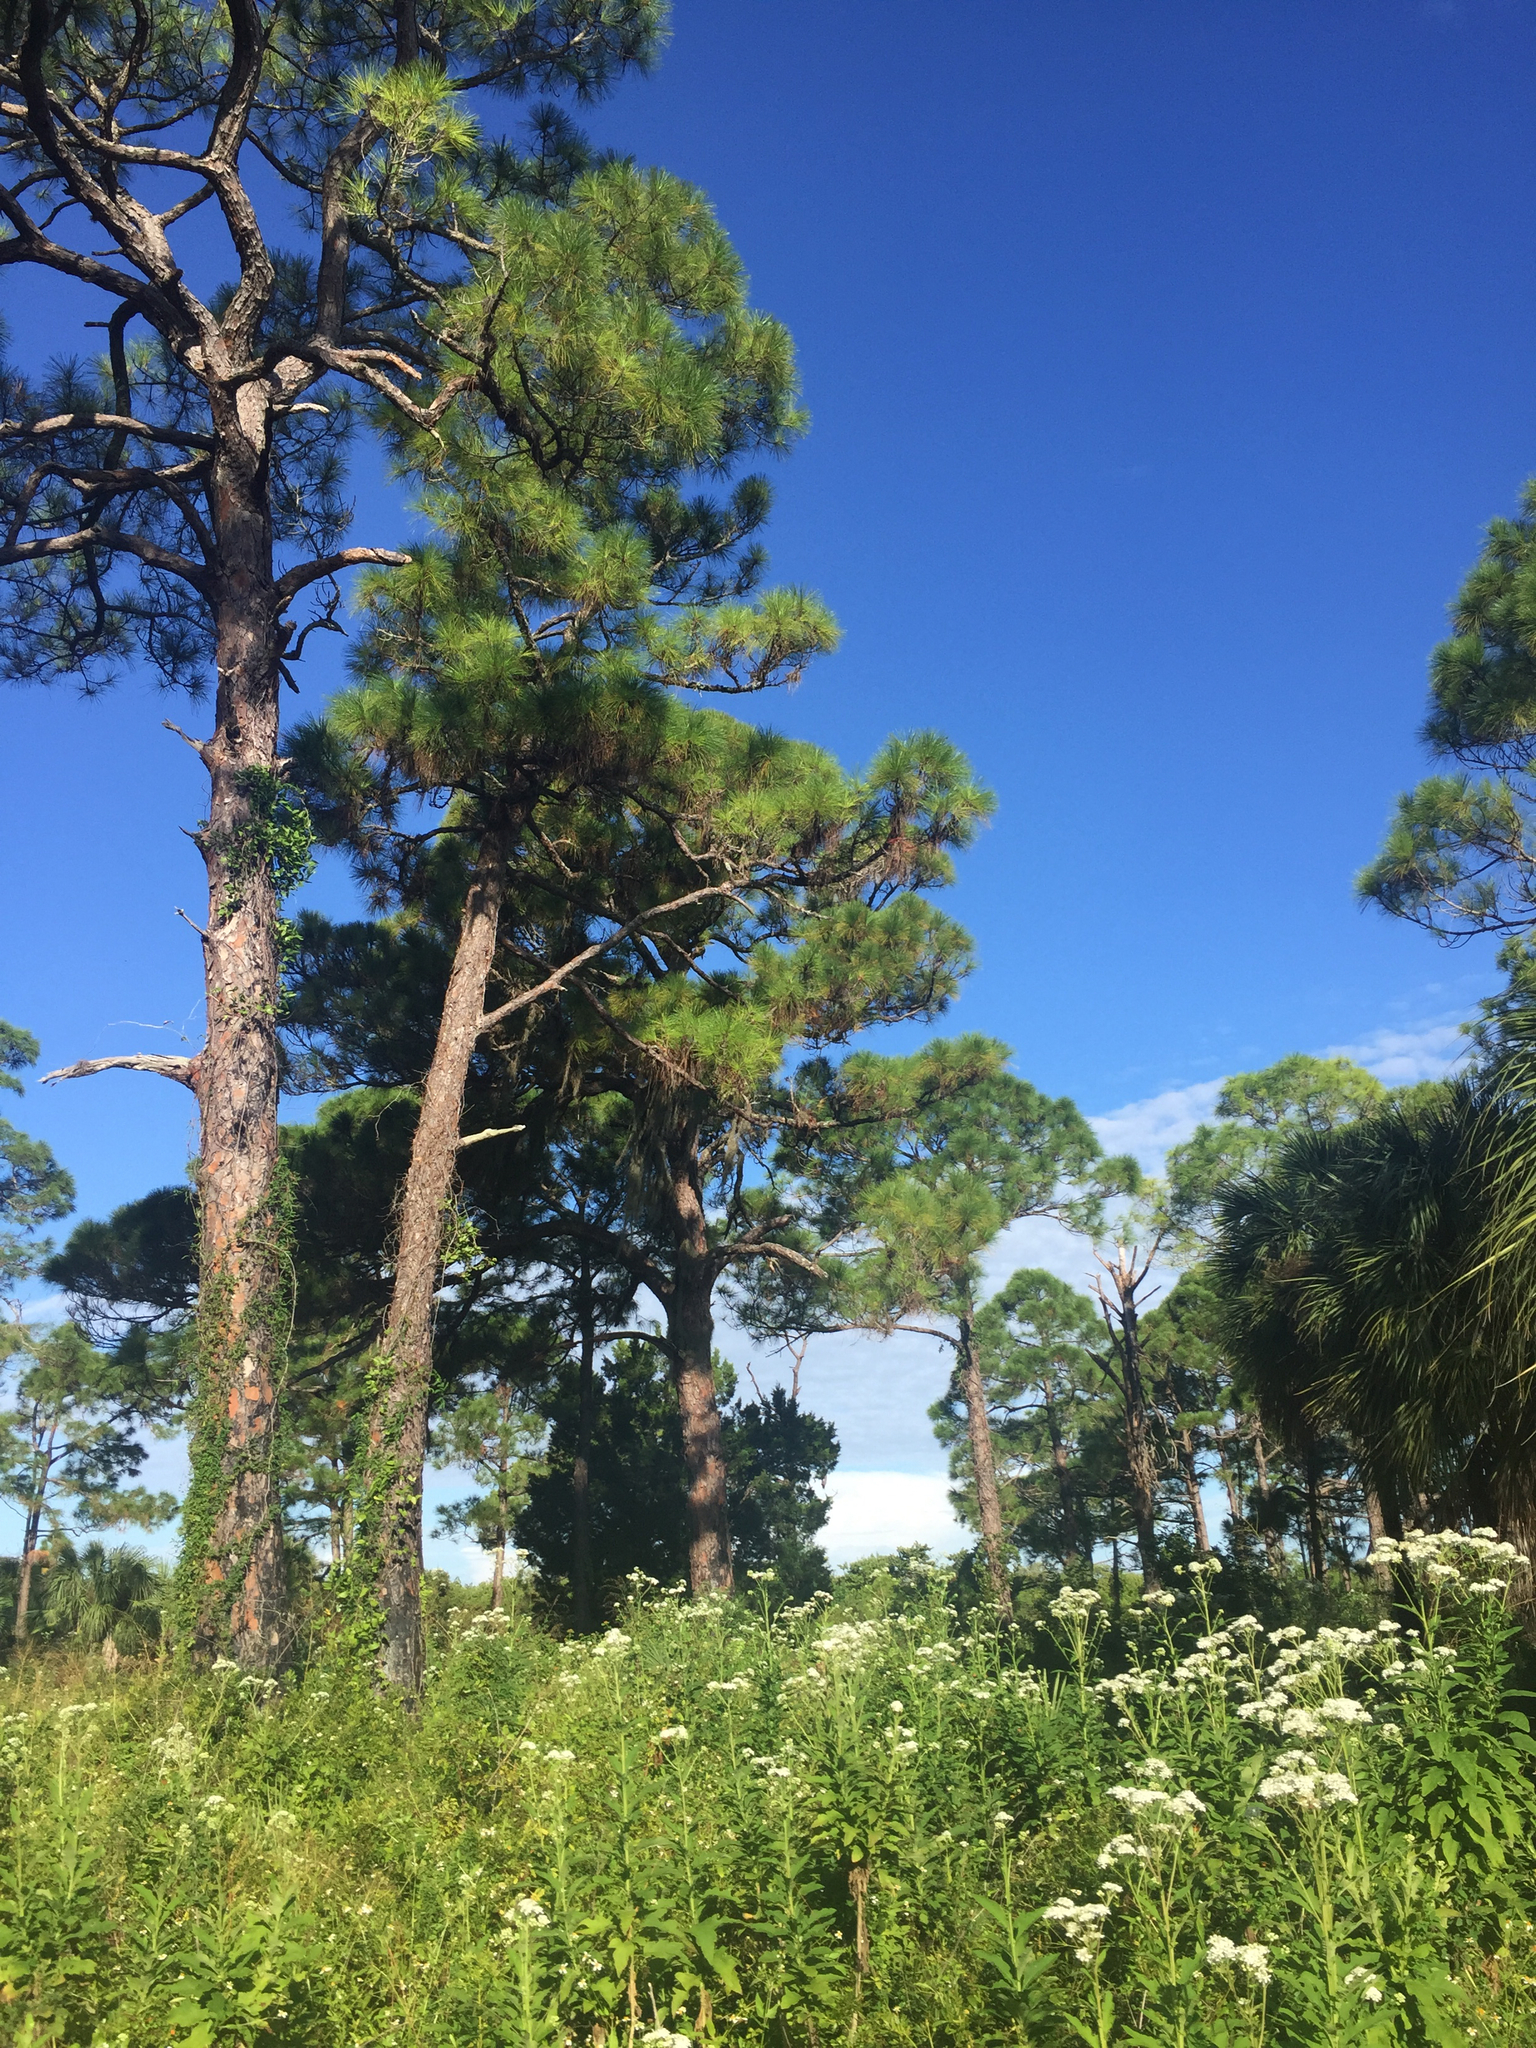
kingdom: Plantae
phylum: Tracheophyta
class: Pinopsida
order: Pinales
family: Pinaceae
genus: Pinus
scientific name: Pinus elliottii
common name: Slash pine
